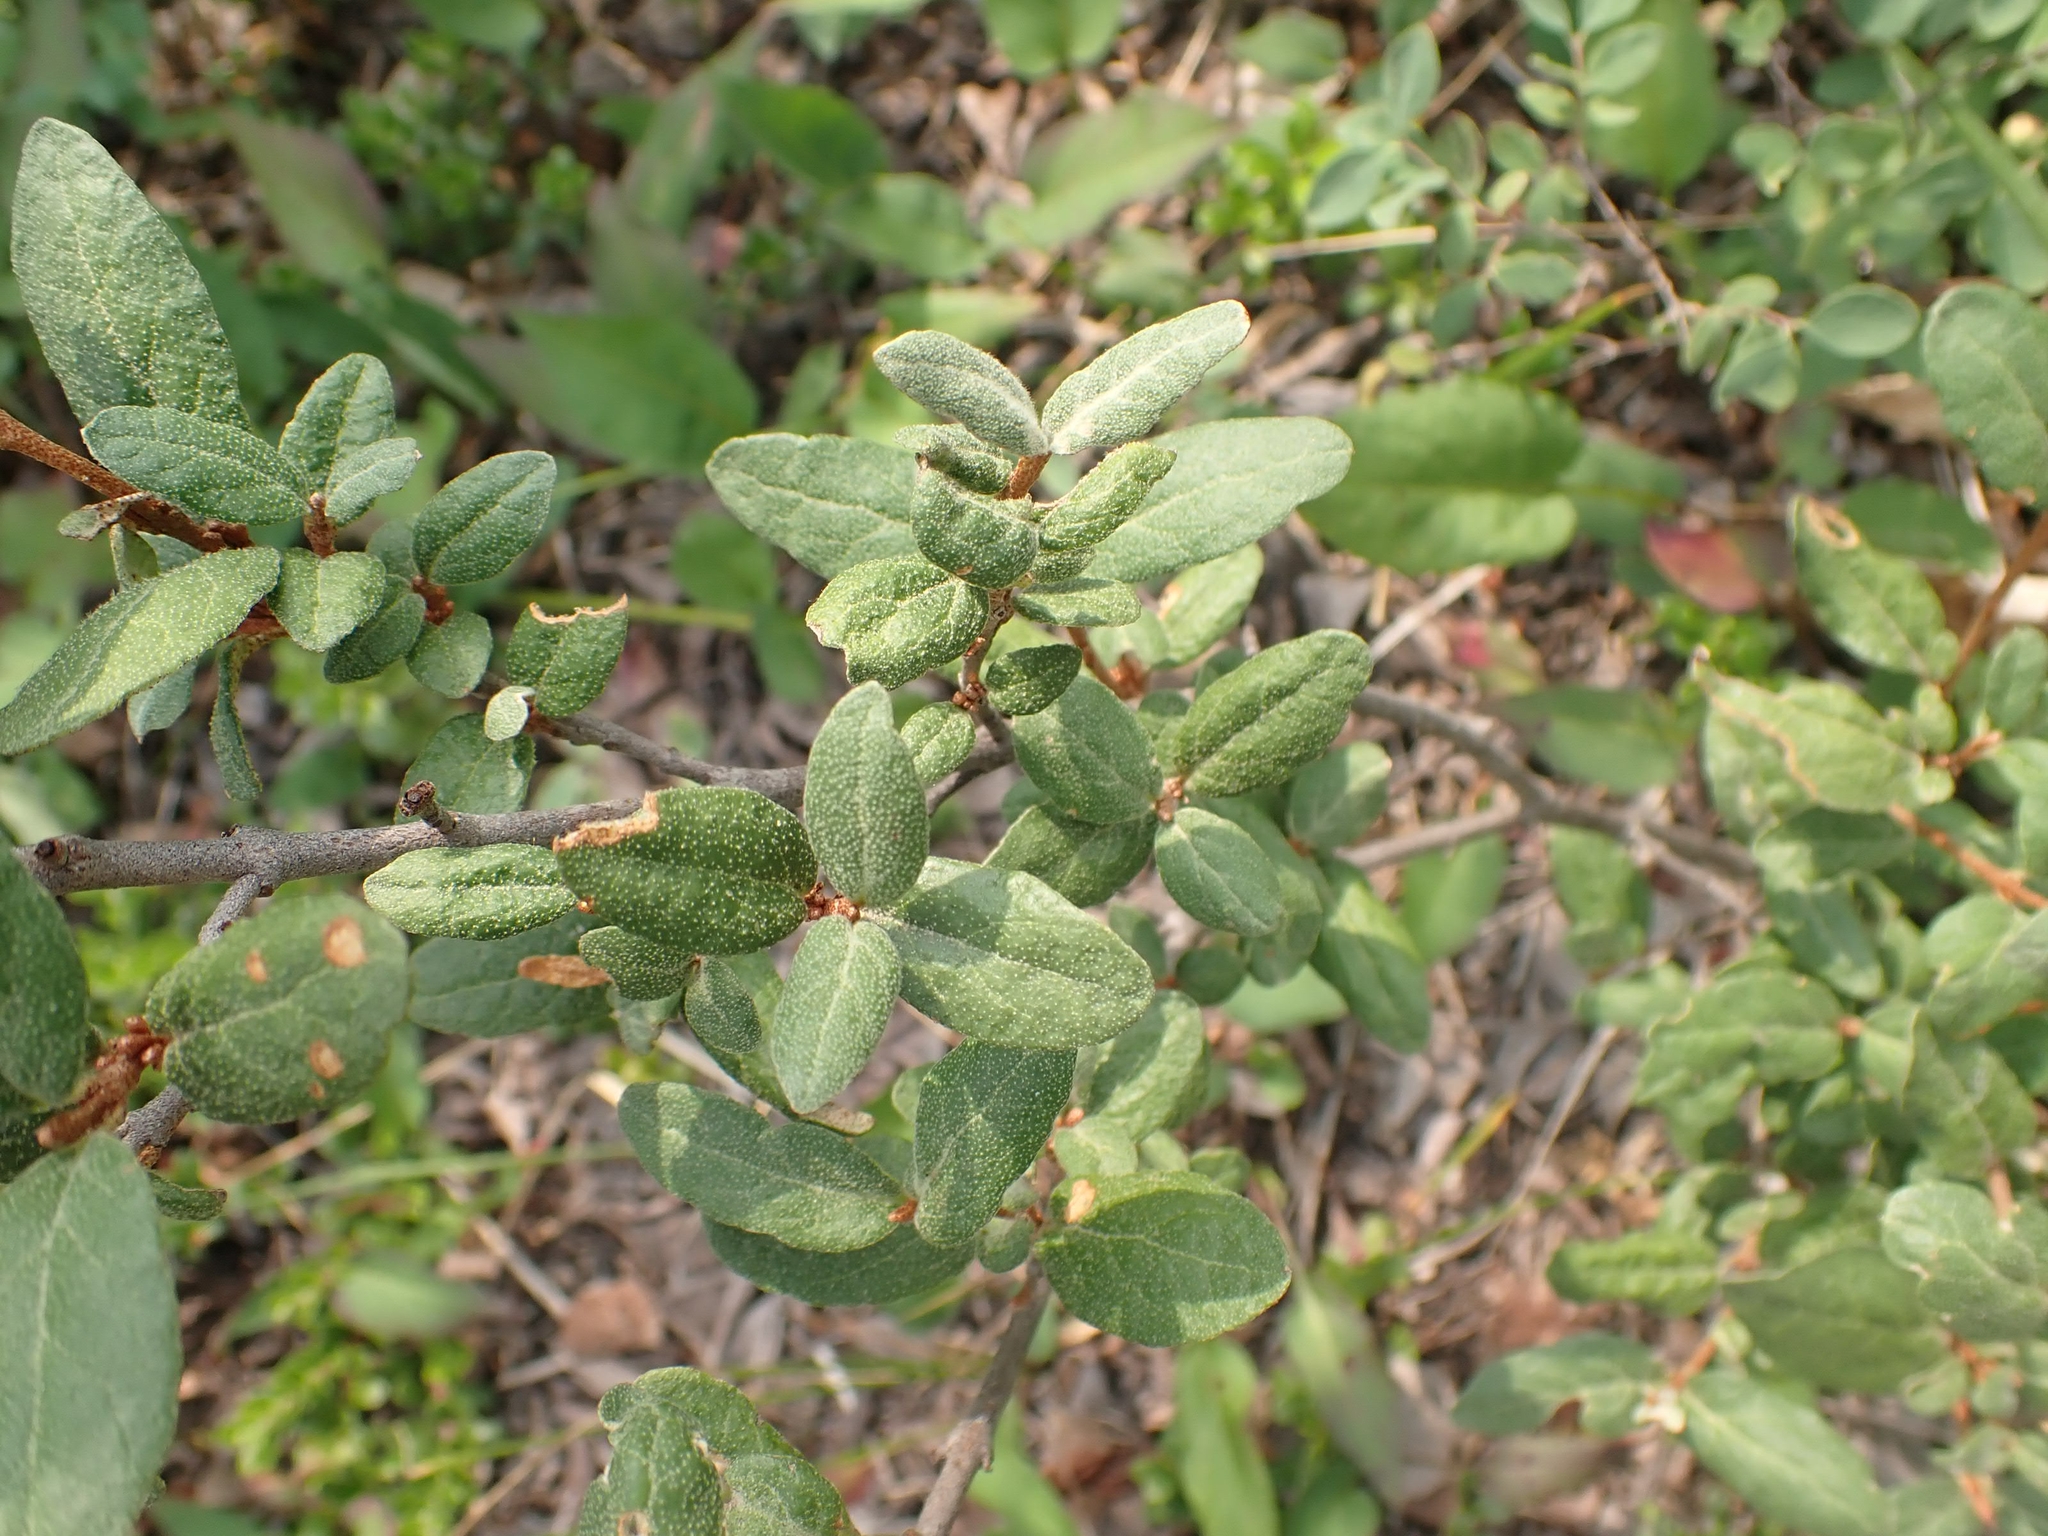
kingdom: Plantae
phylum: Tracheophyta
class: Magnoliopsida
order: Rosales
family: Elaeagnaceae
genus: Shepherdia
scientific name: Shepherdia canadensis
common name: Soapberry
